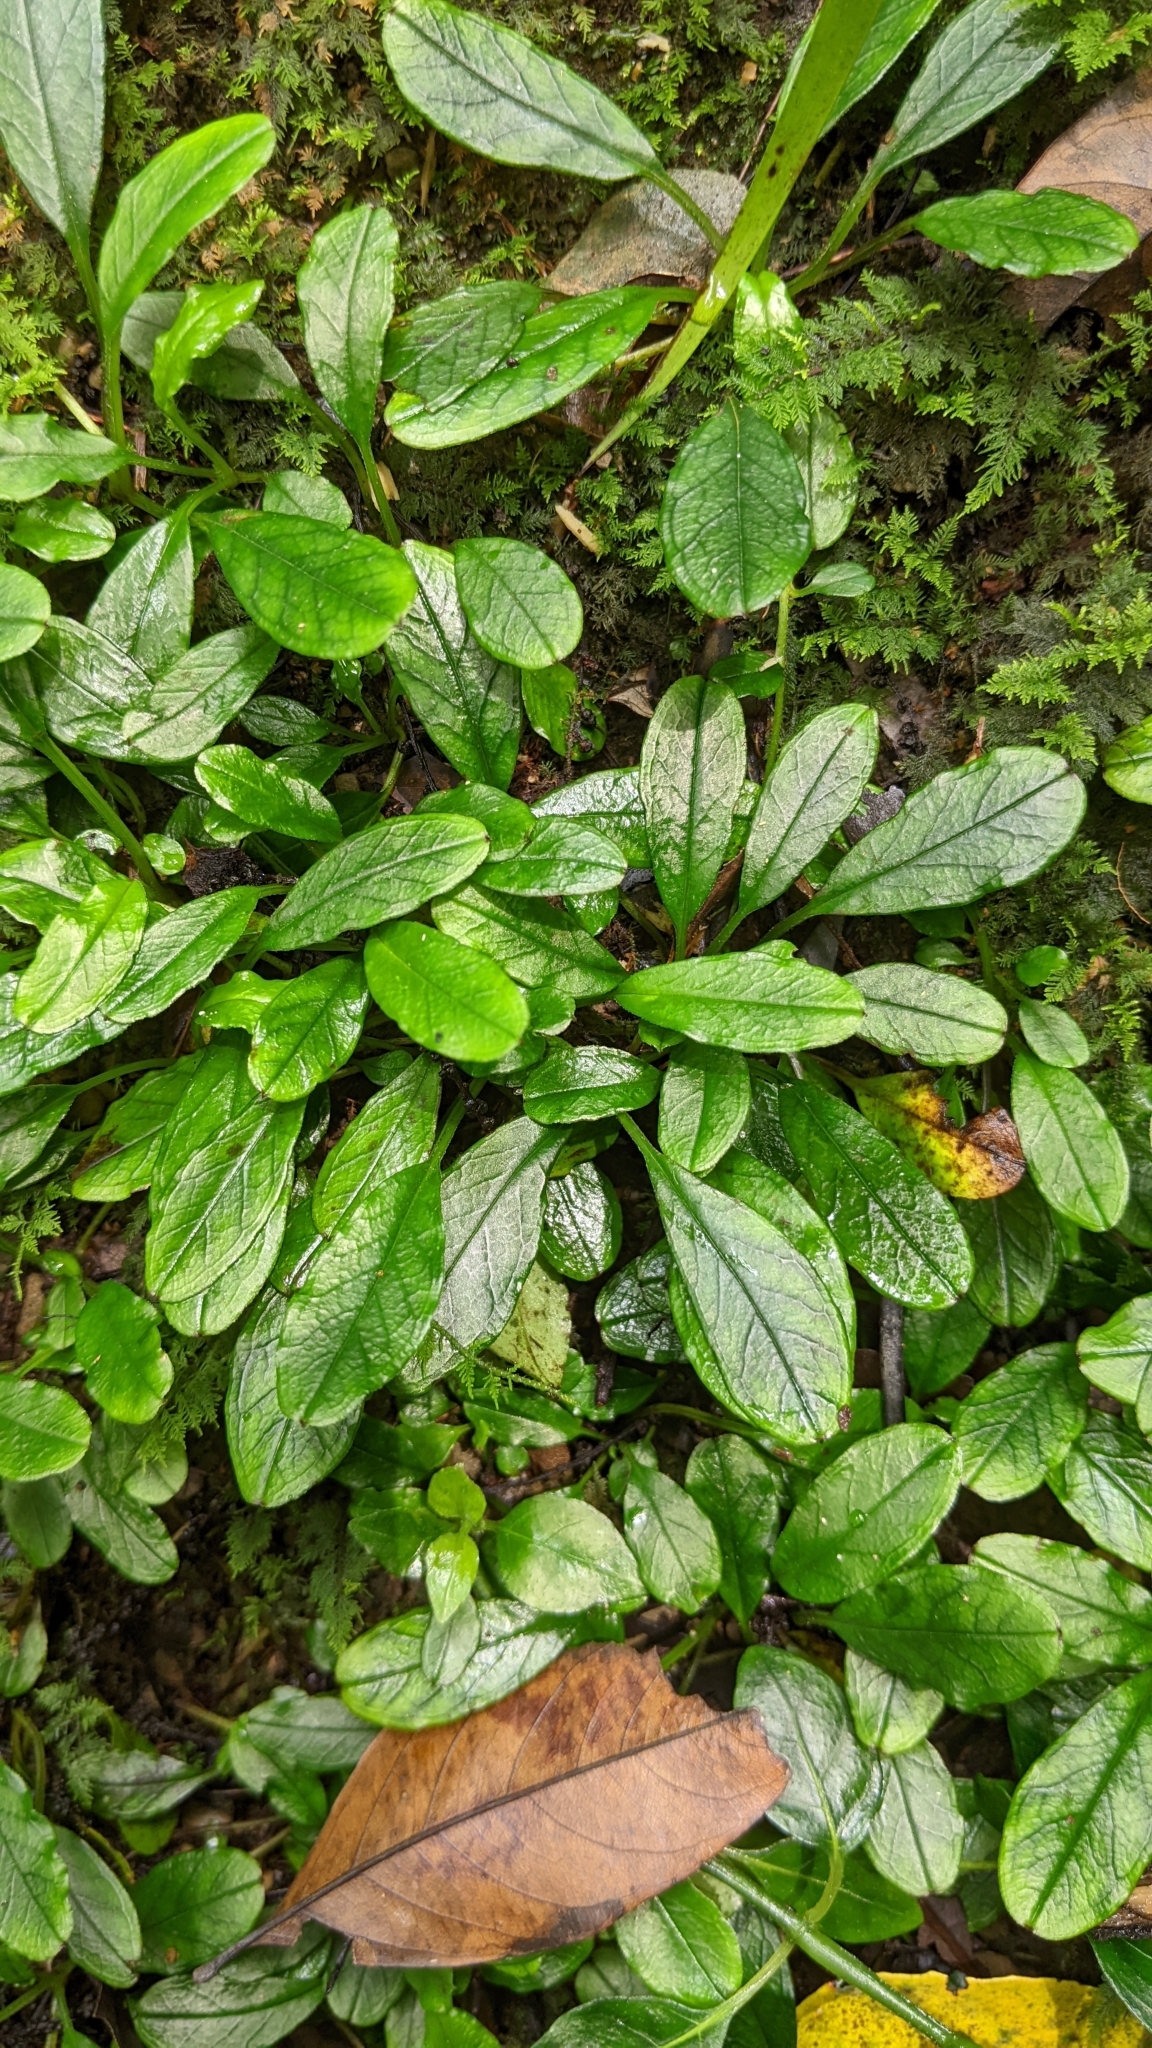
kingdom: Plantae
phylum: Tracheophyta
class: Magnoliopsida
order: Boraginales
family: Boraginaceae
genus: Trigonotis
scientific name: Trigonotis formosana
